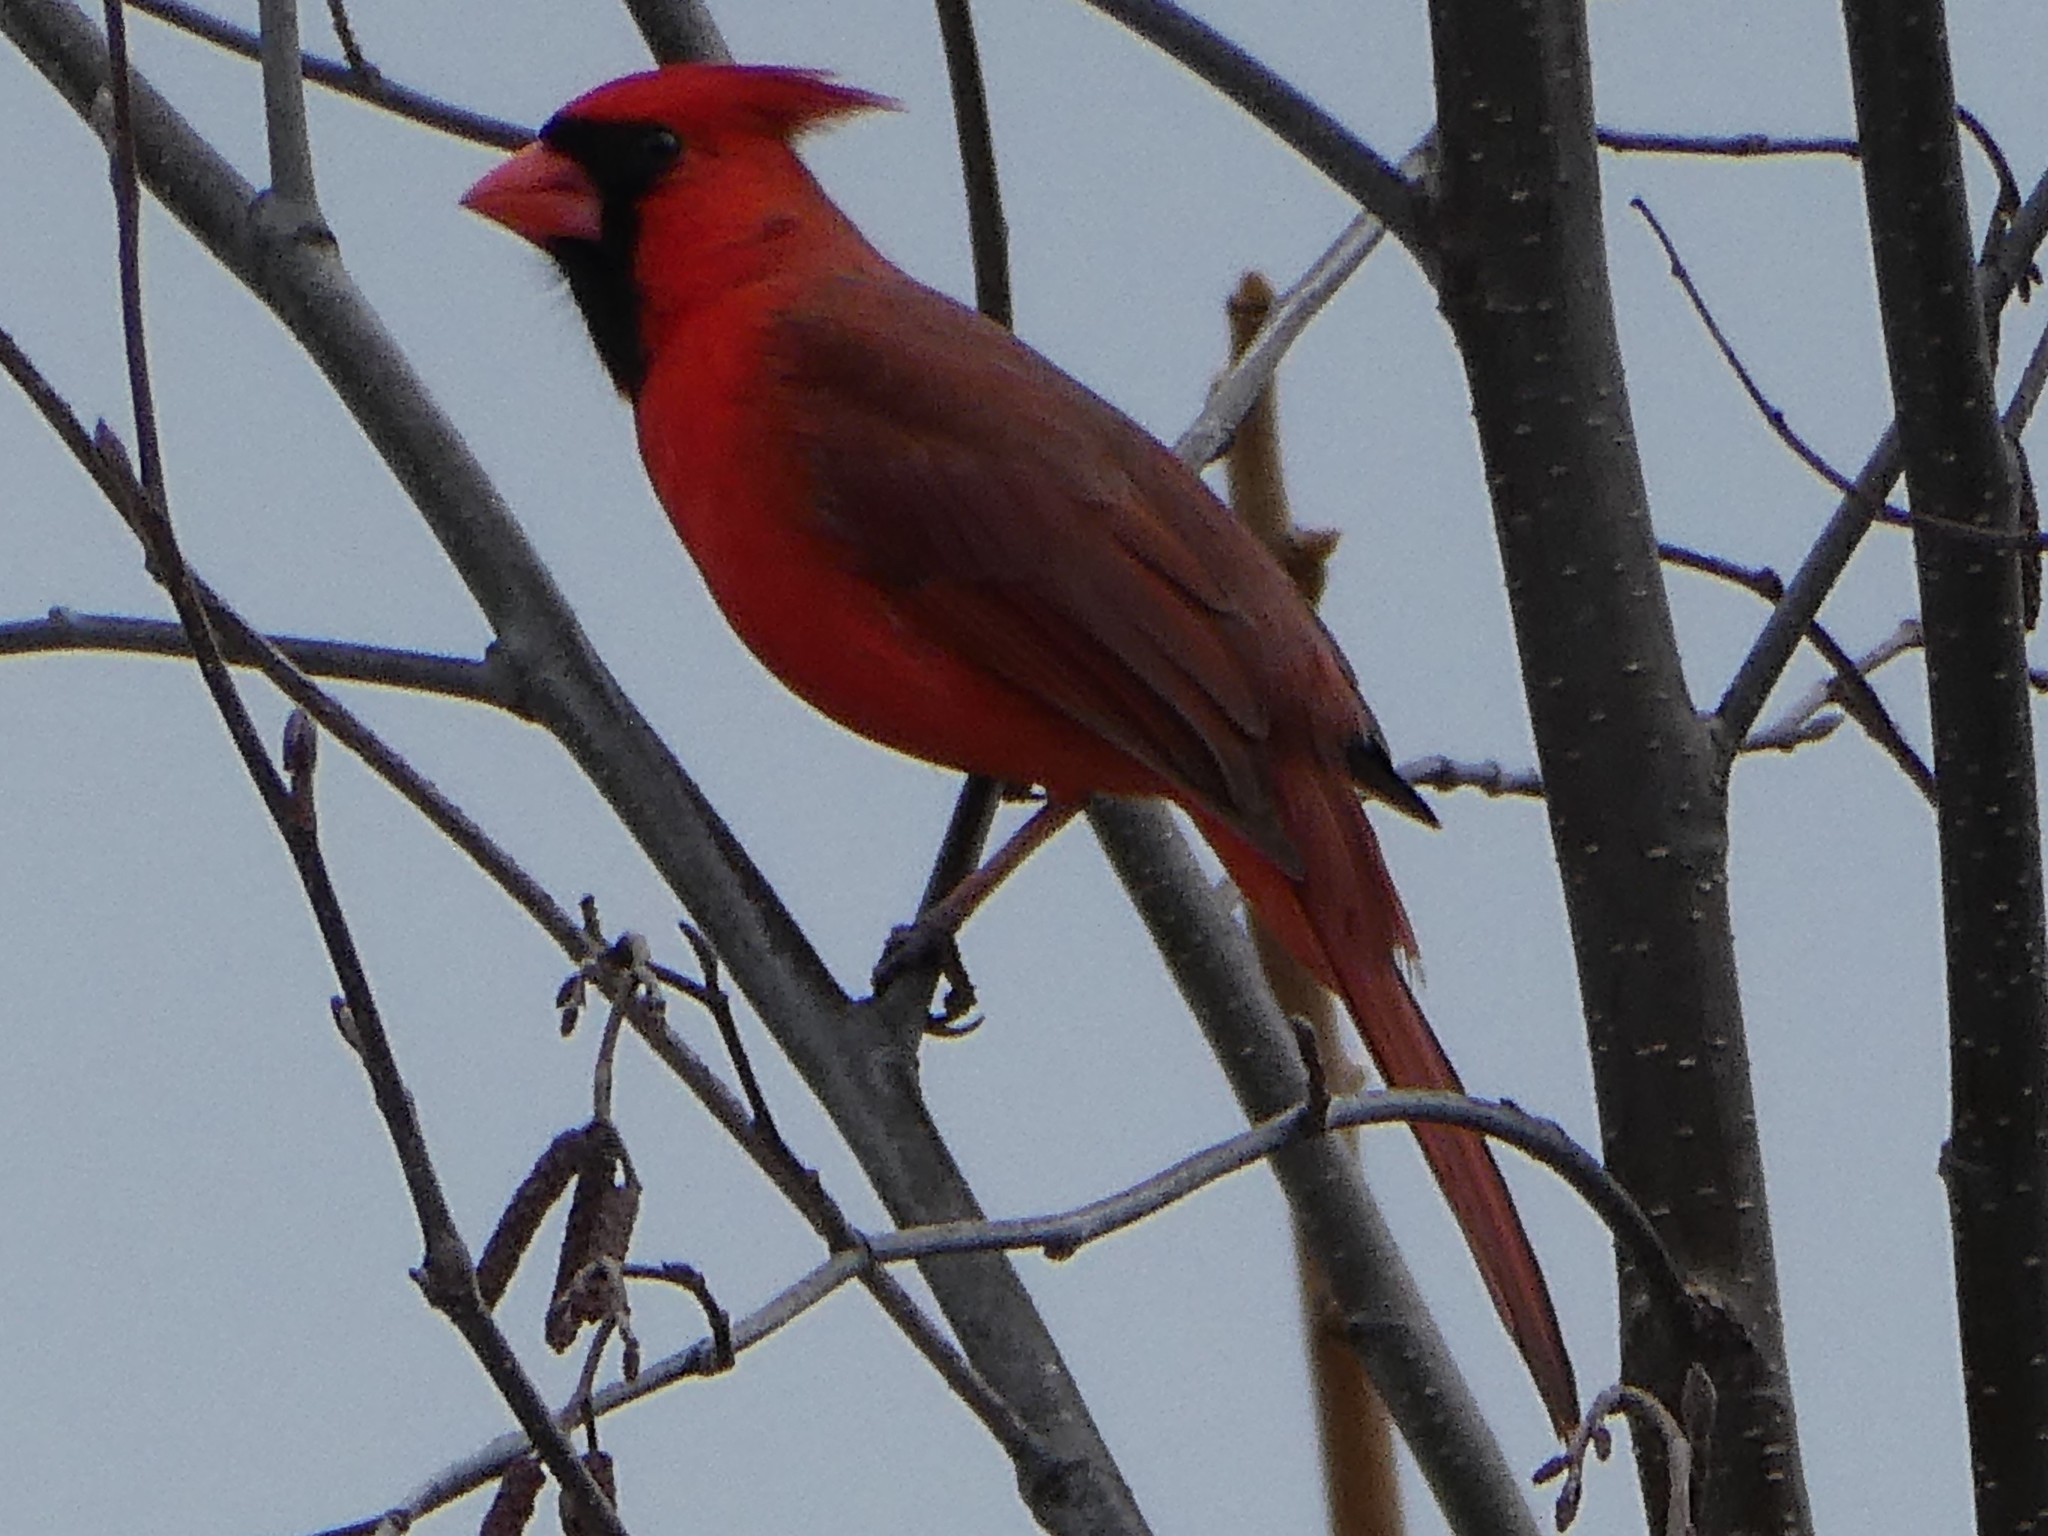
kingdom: Animalia
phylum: Chordata
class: Aves
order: Passeriformes
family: Cardinalidae
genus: Cardinalis
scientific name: Cardinalis cardinalis
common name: Northern cardinal
